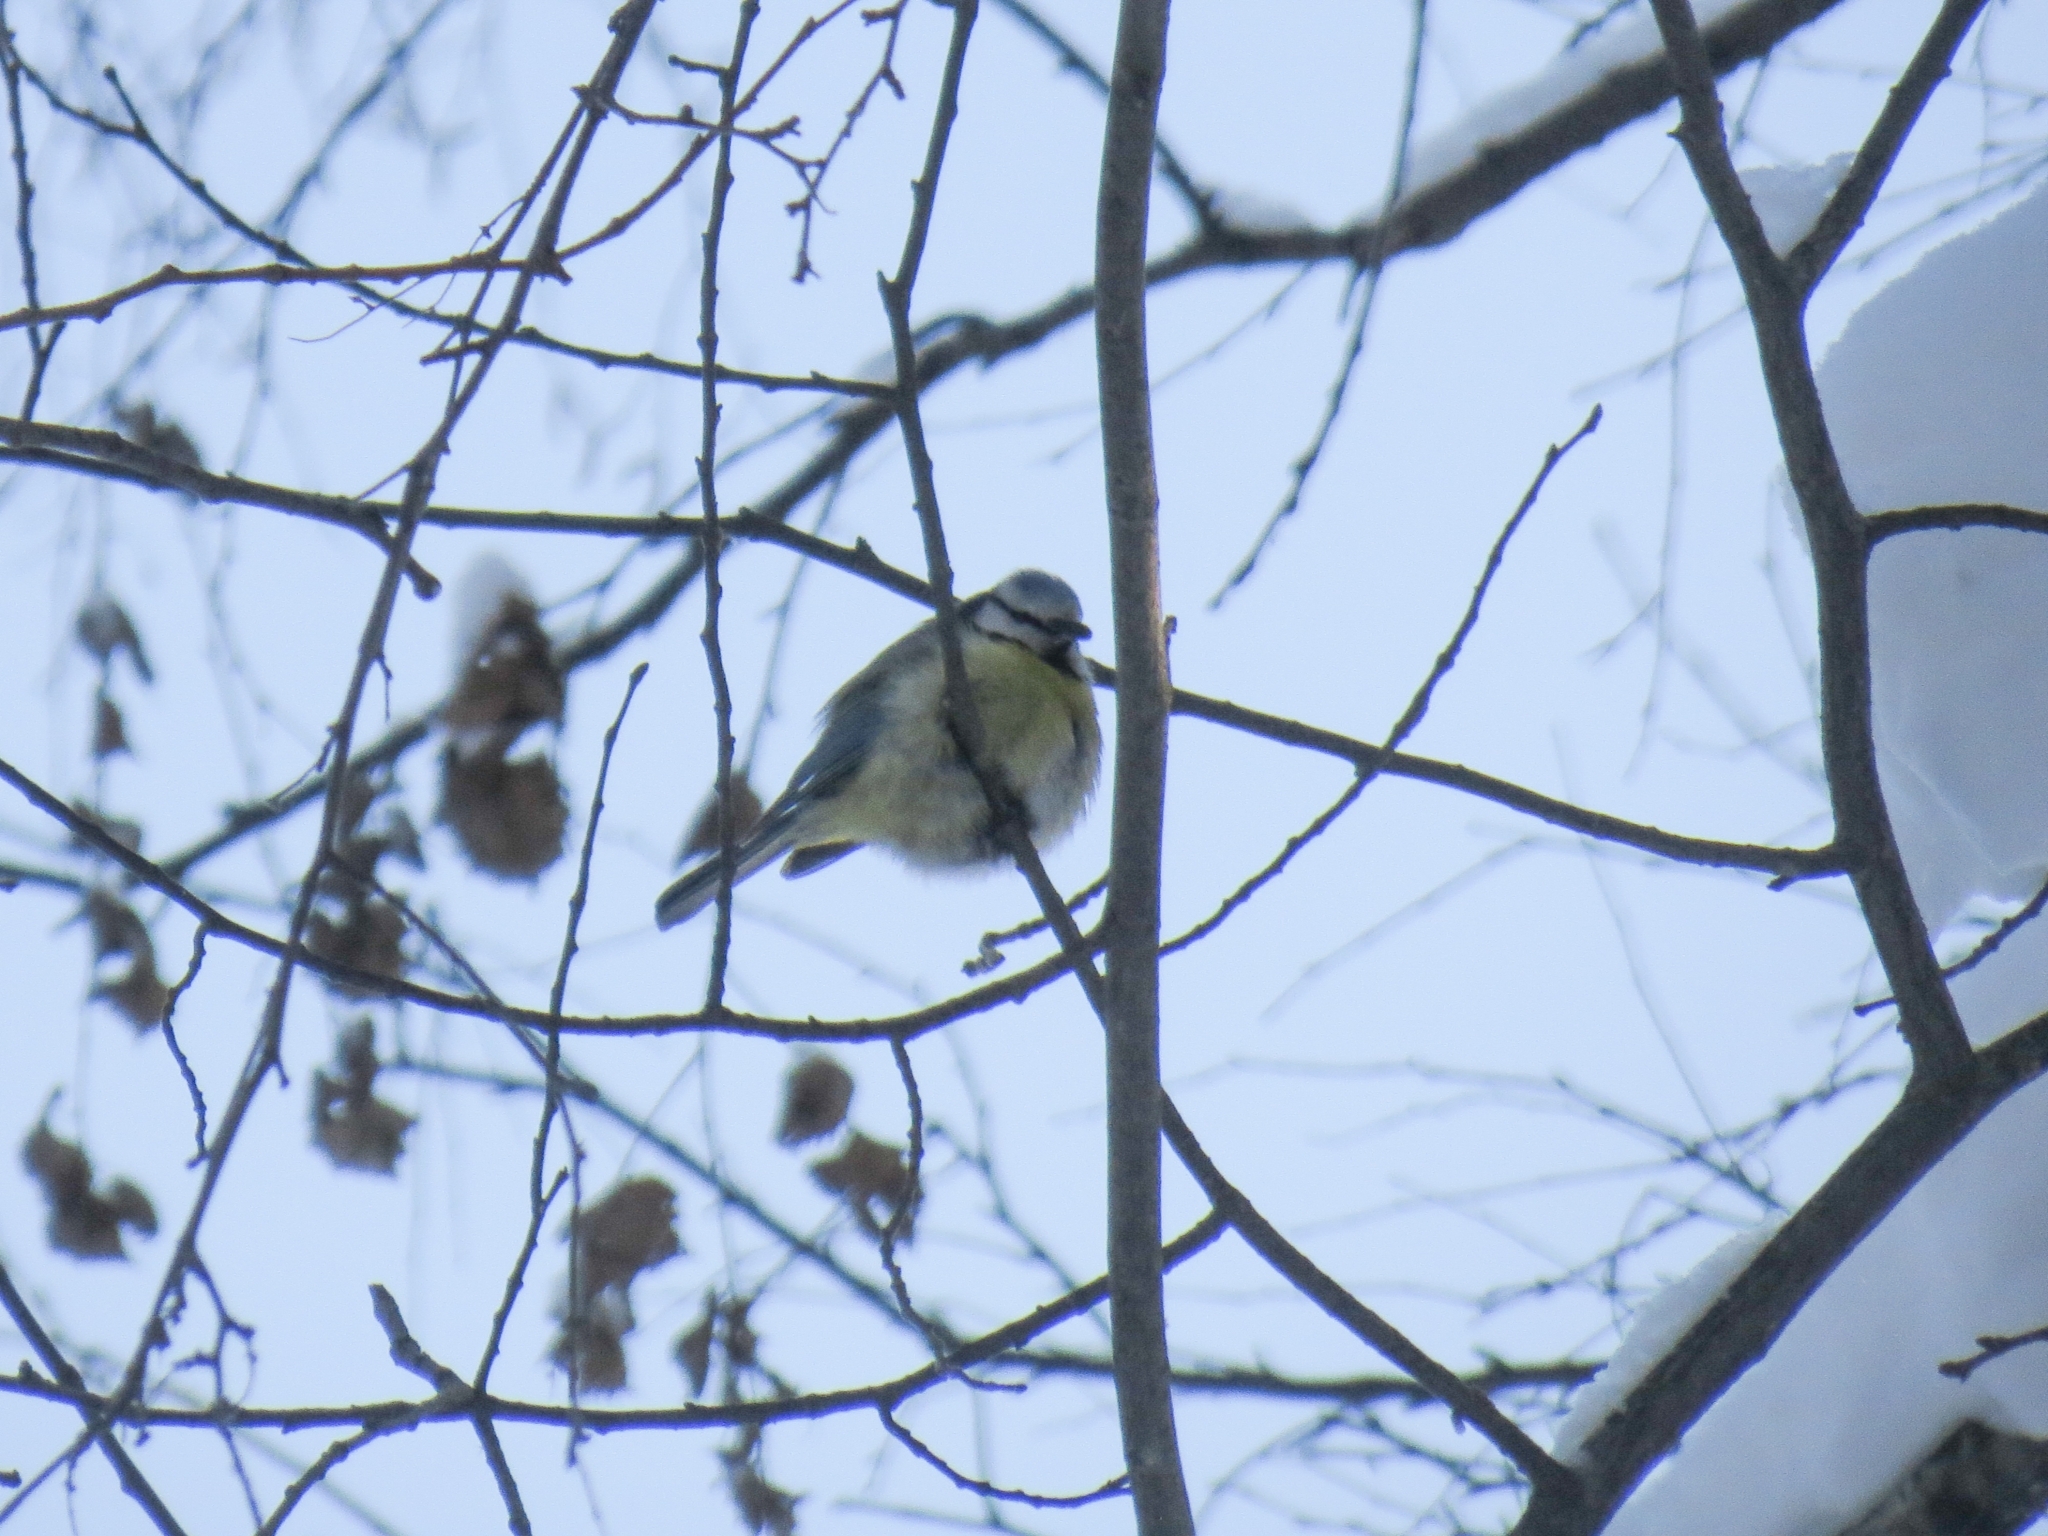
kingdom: Animalia
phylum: Chordata
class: Aves
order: Passeriformes
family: Paridae
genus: Cyanistes
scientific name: Cyanistes caeruleus
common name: Eurasian blue tit
